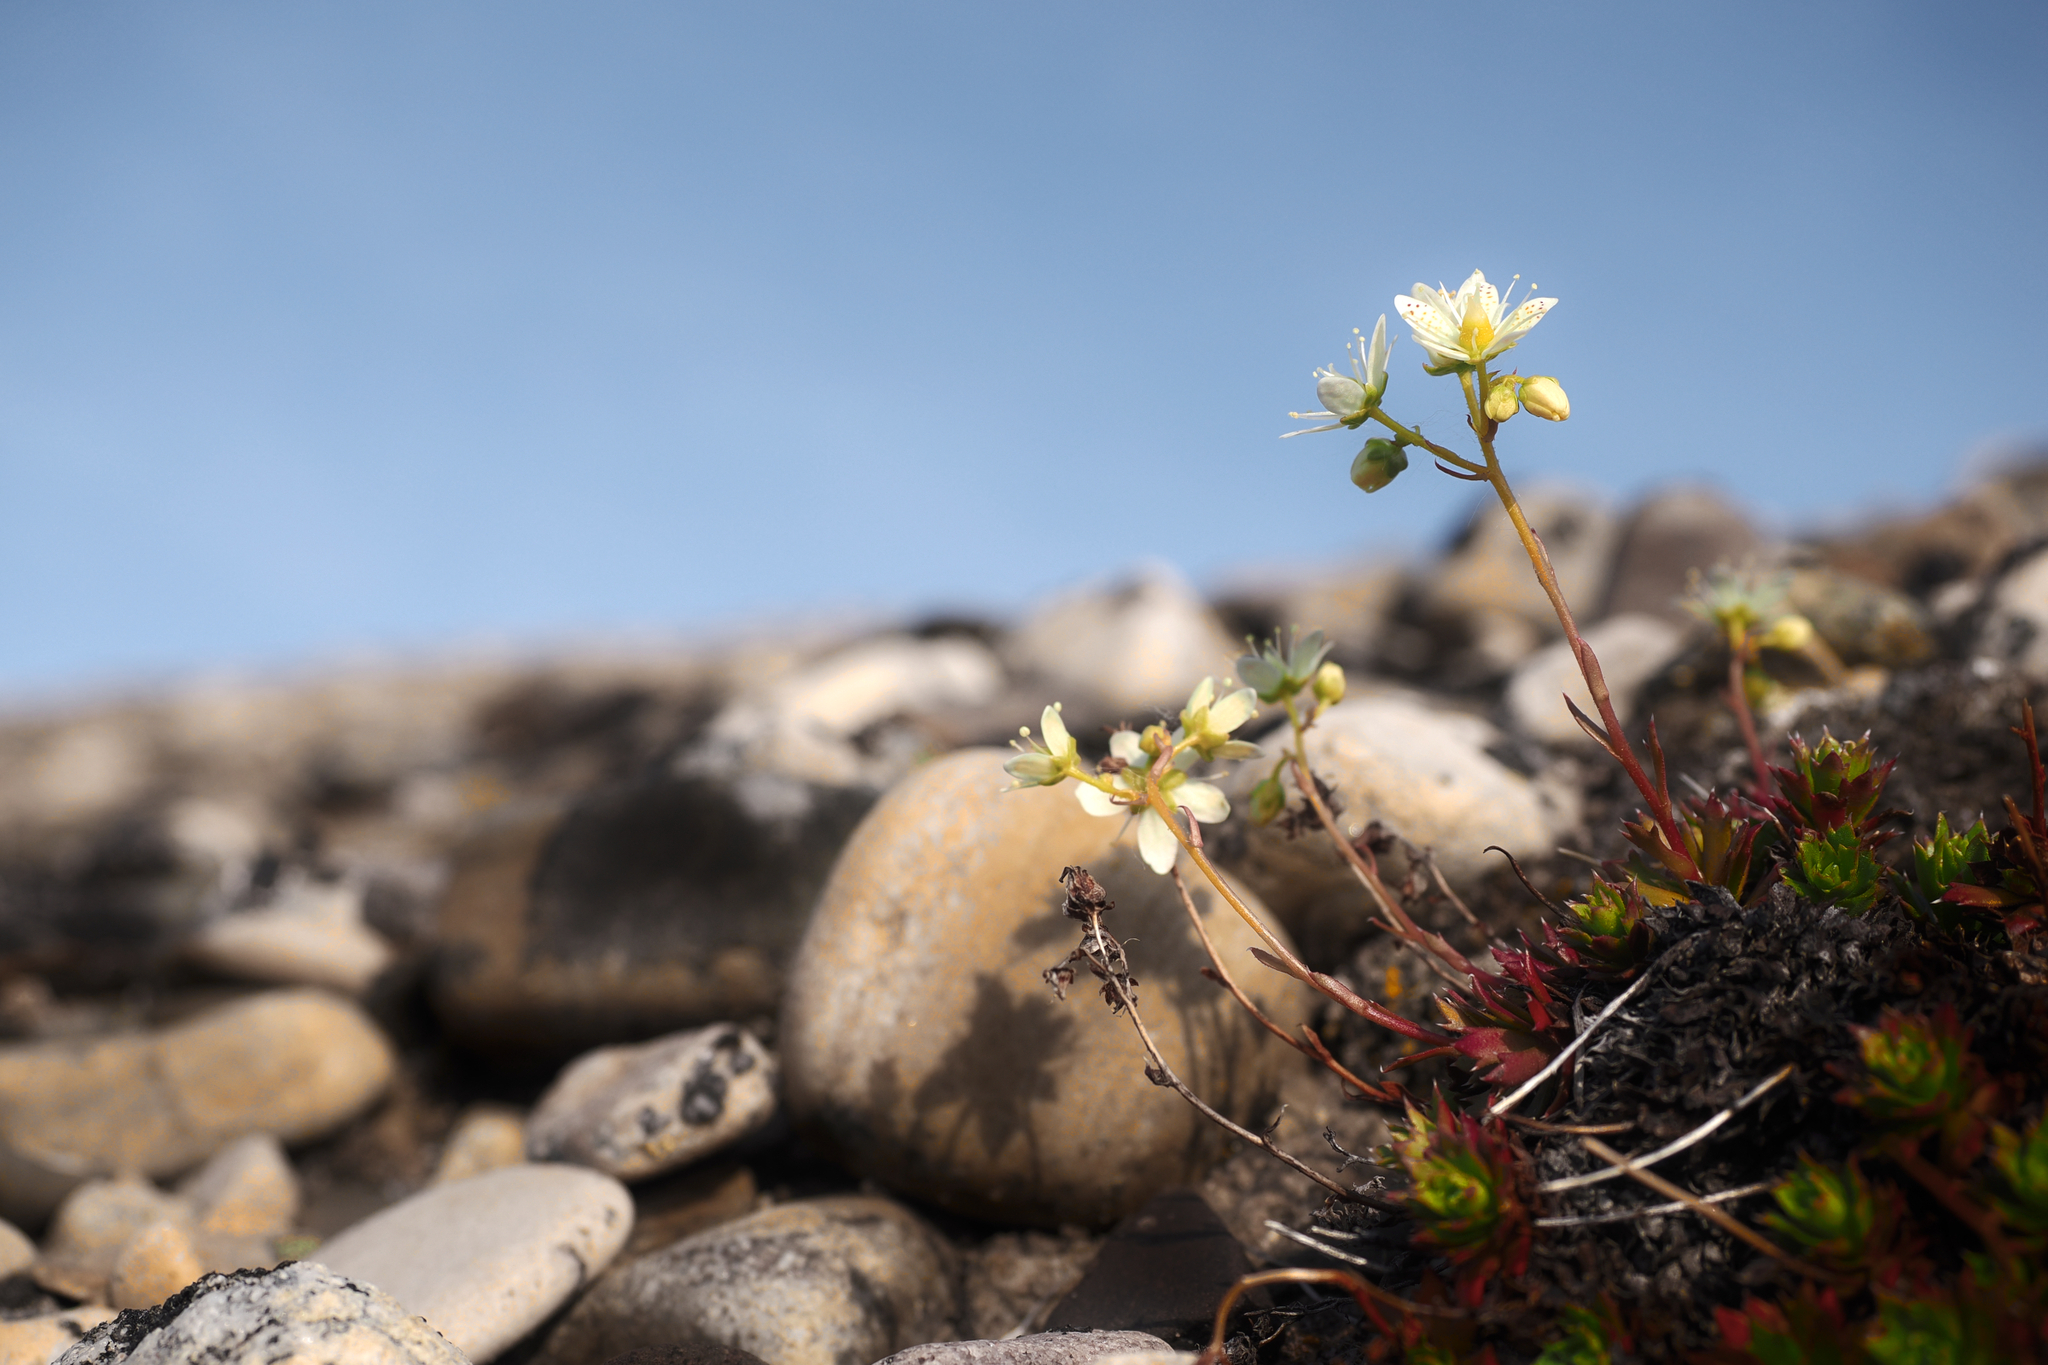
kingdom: Plantae
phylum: Tracheophyta
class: Magnoliopsida
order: Saxifragales
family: Saxifragaceae
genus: Saxifraga
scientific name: Saxifraga tricuspidata
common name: Prickly saxifrage
